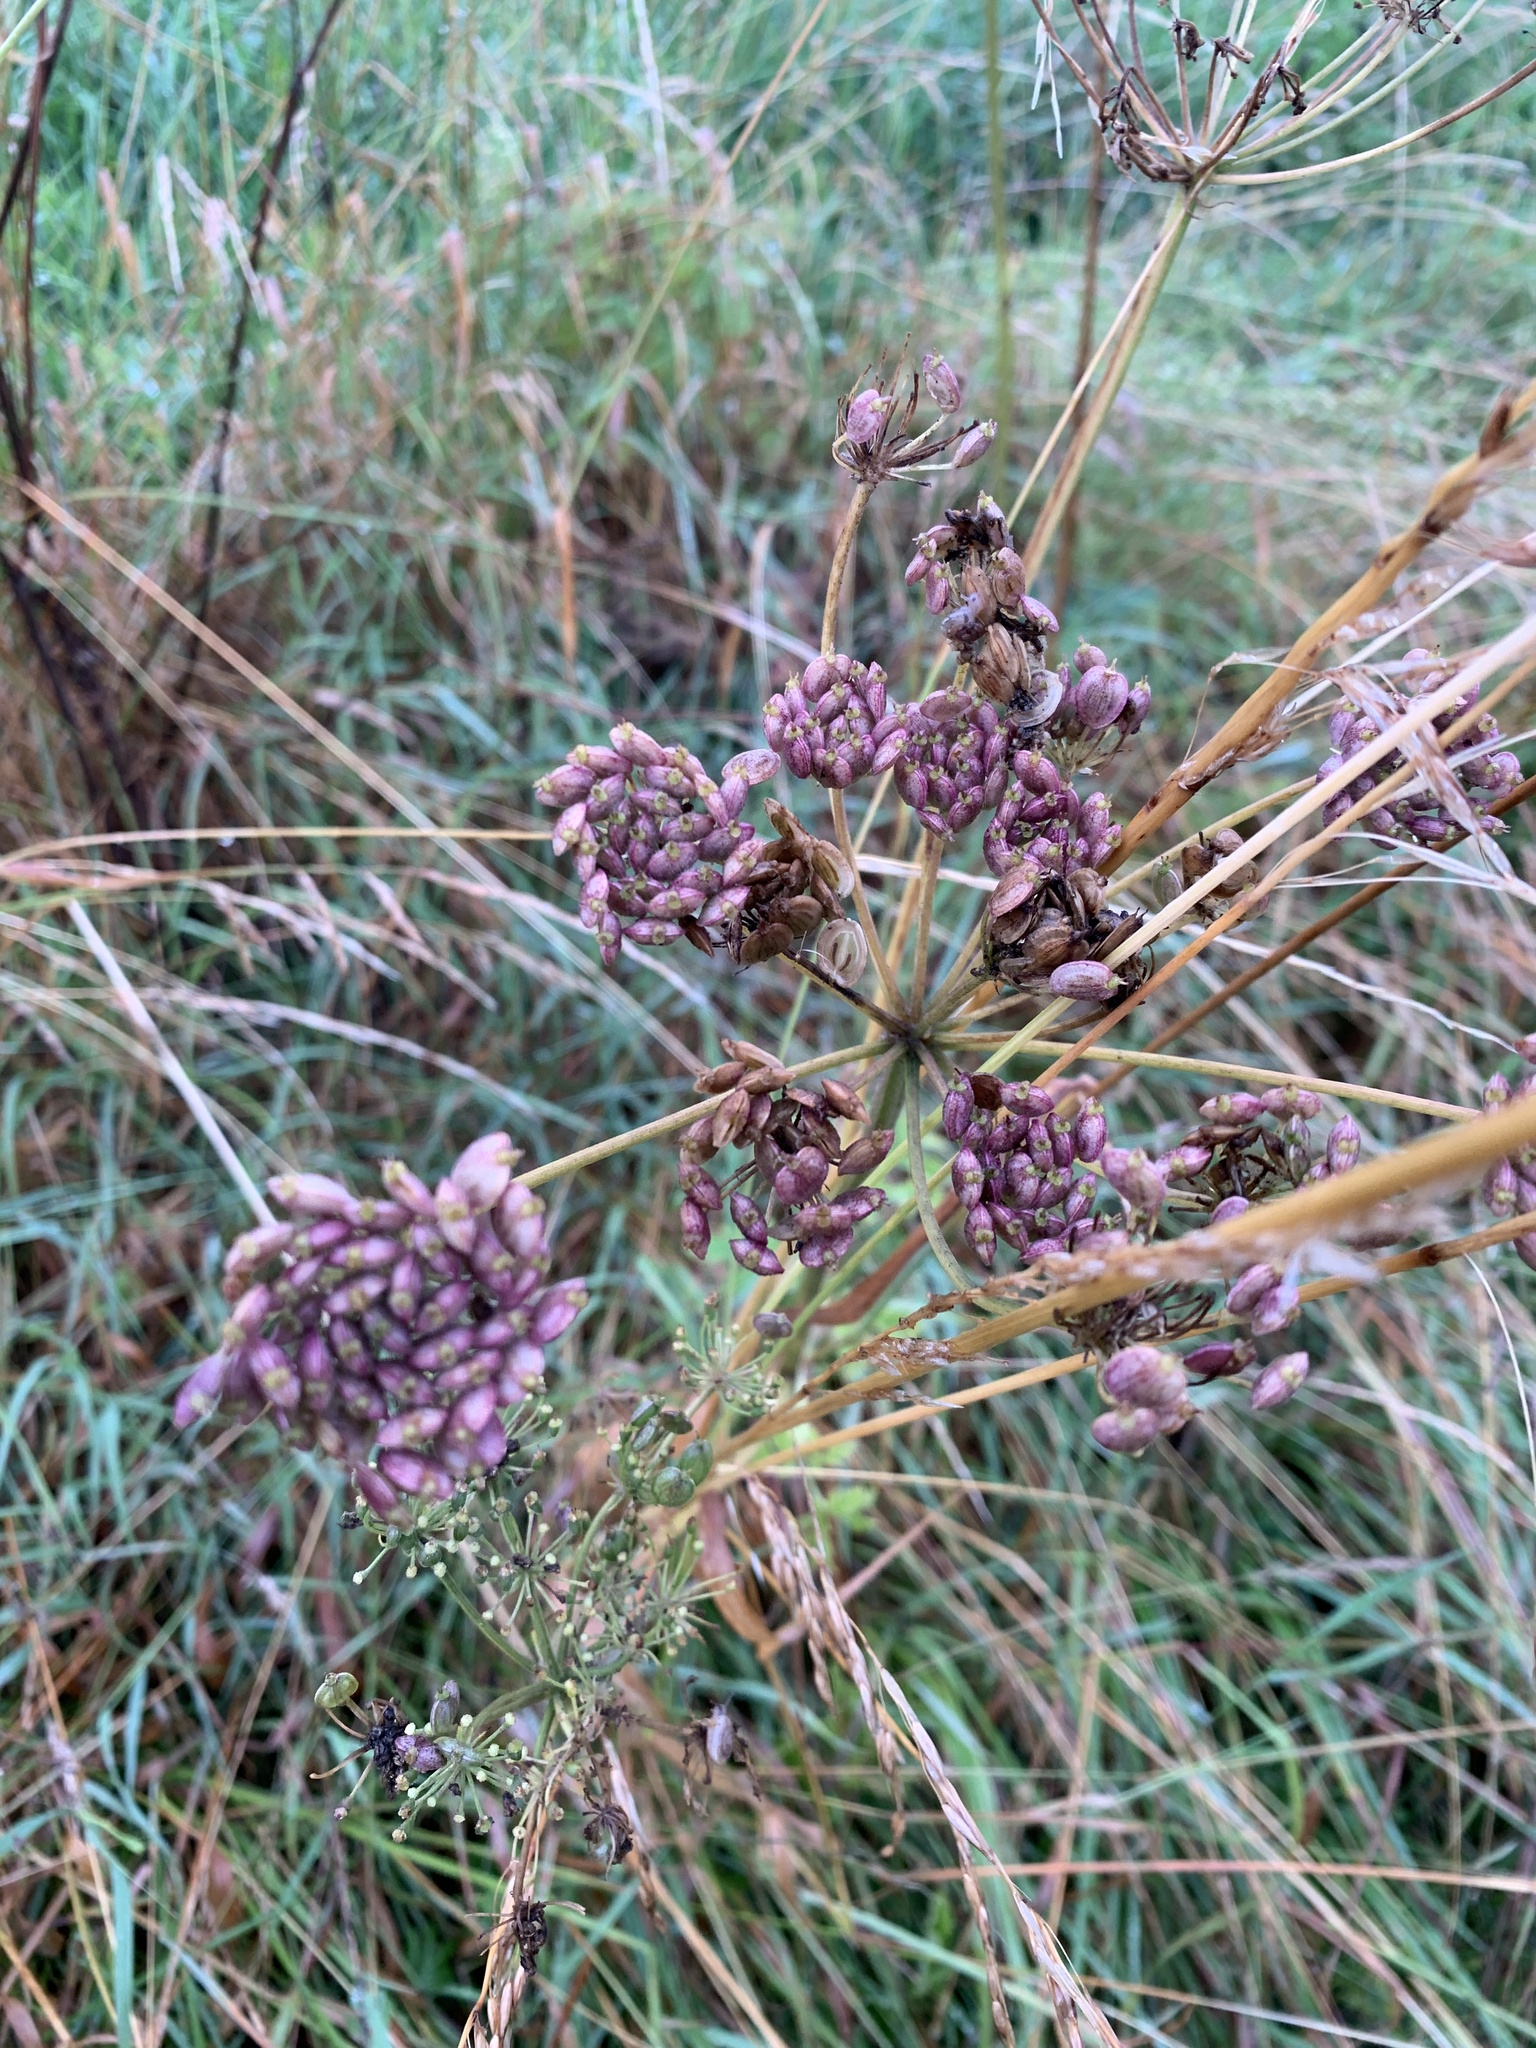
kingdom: Plantae
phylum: Tracheophyta
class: Magnoliopsida
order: Apiales
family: Apiaceae
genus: Heracleum
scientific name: Heracleum sphondylium
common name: Hogweed
